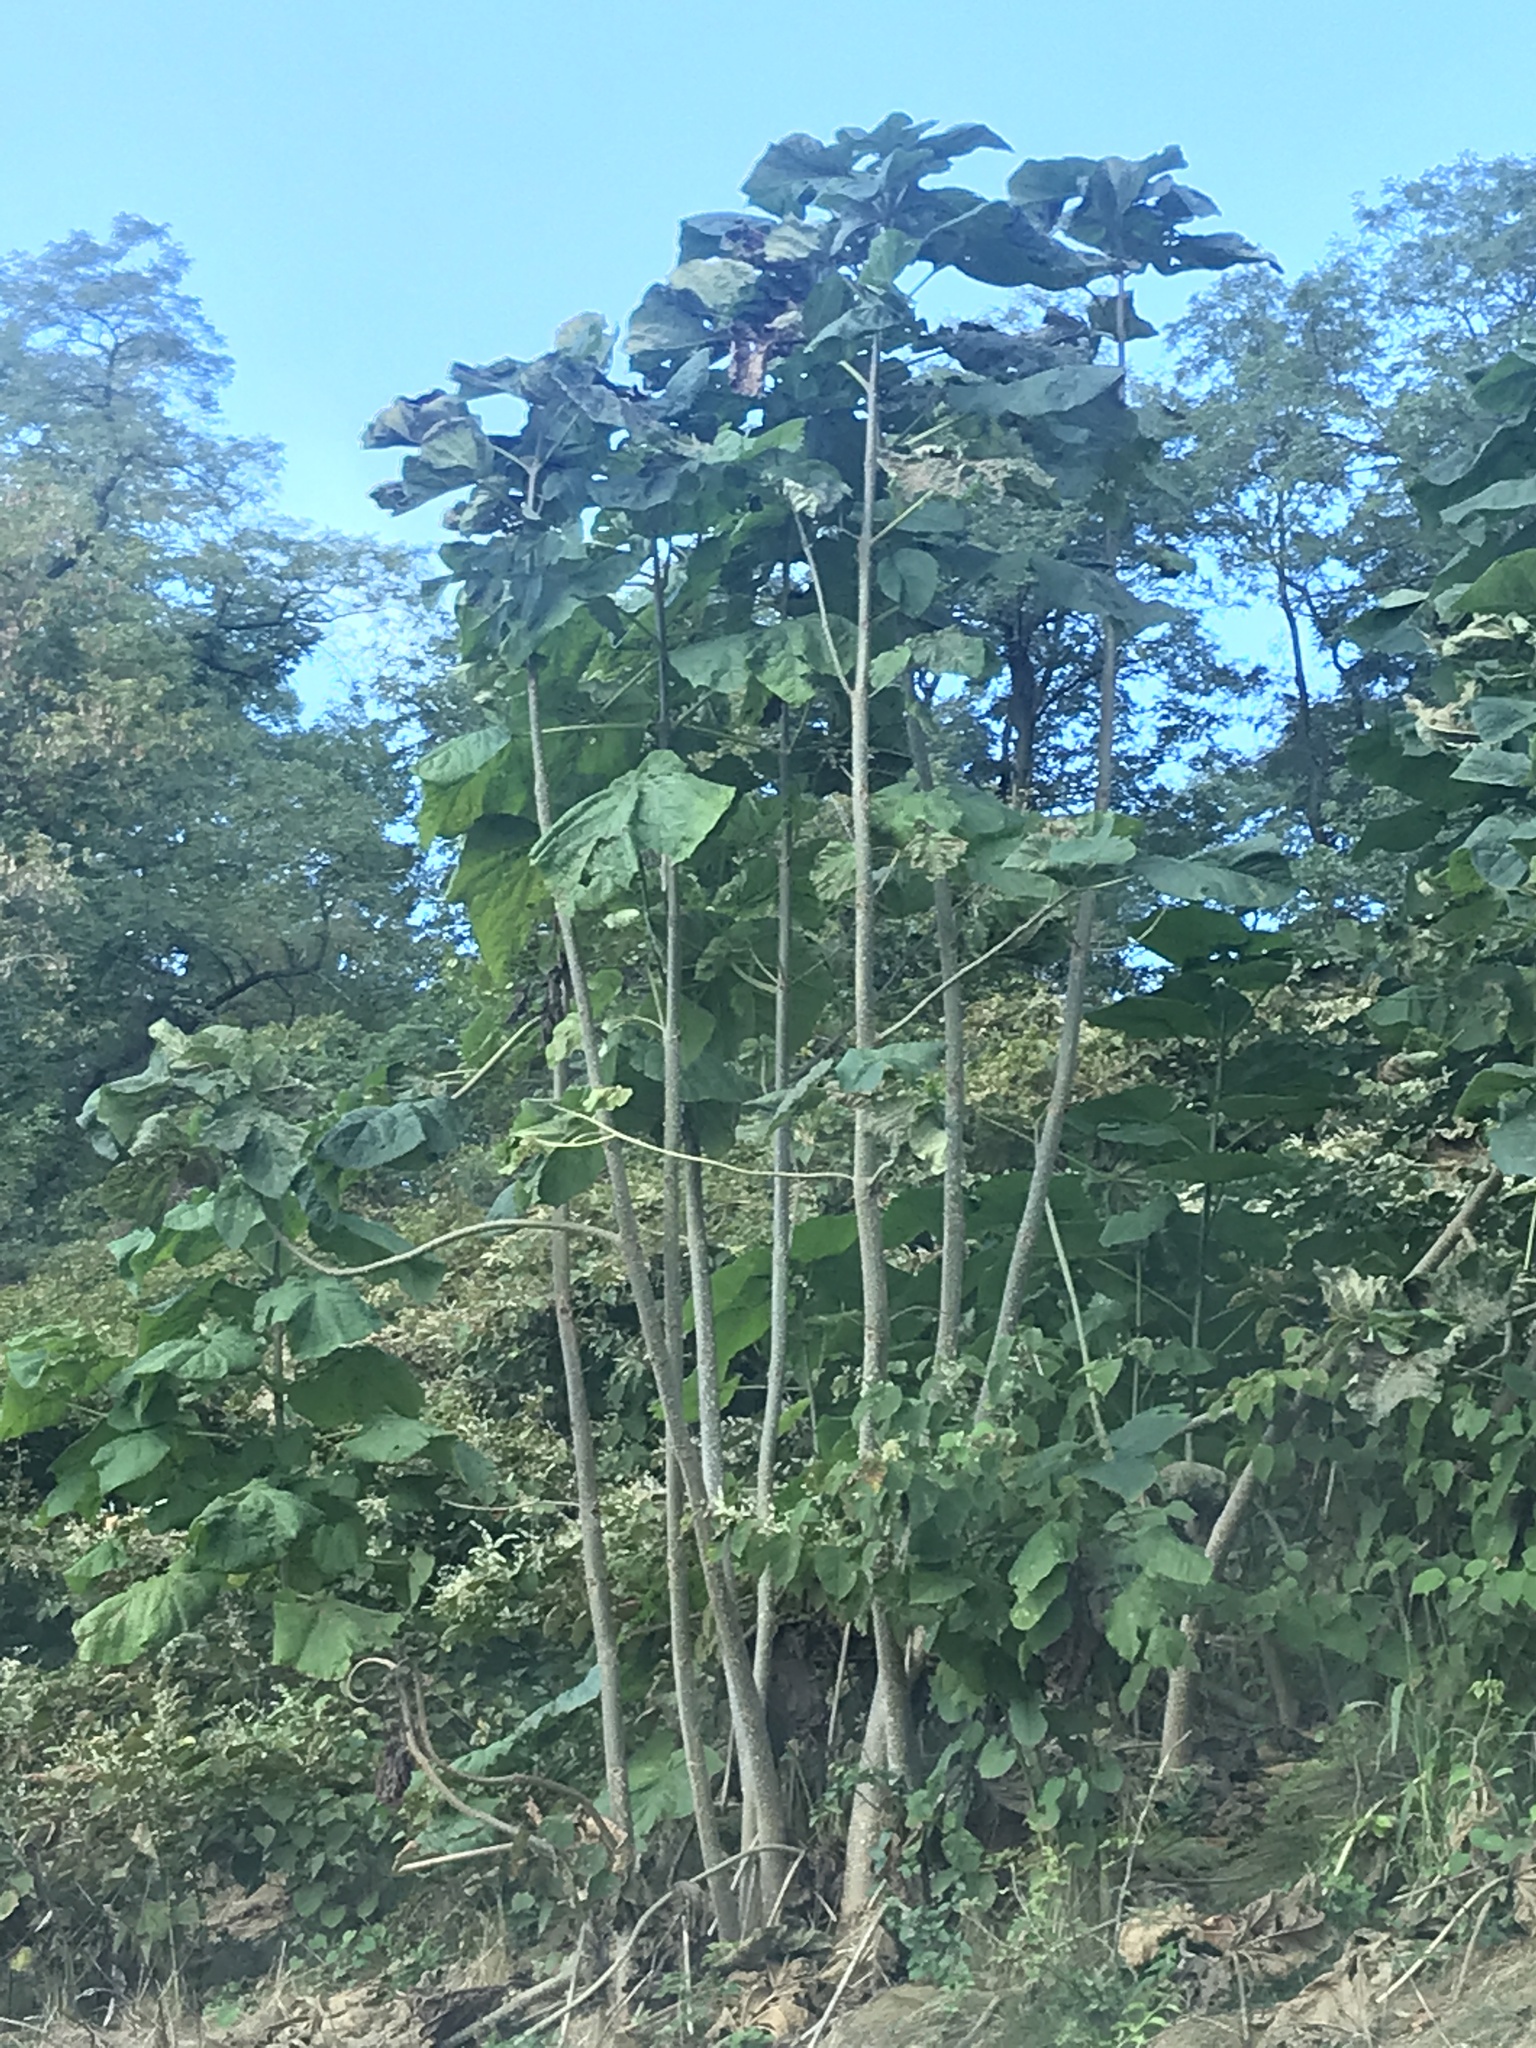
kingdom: Plantae
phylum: Tracheophyta
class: Magnoliopsida
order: Lamiales
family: Paulowniaceae
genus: Paulownia
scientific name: Paulownia tomentosa
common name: Foxglove-tree
